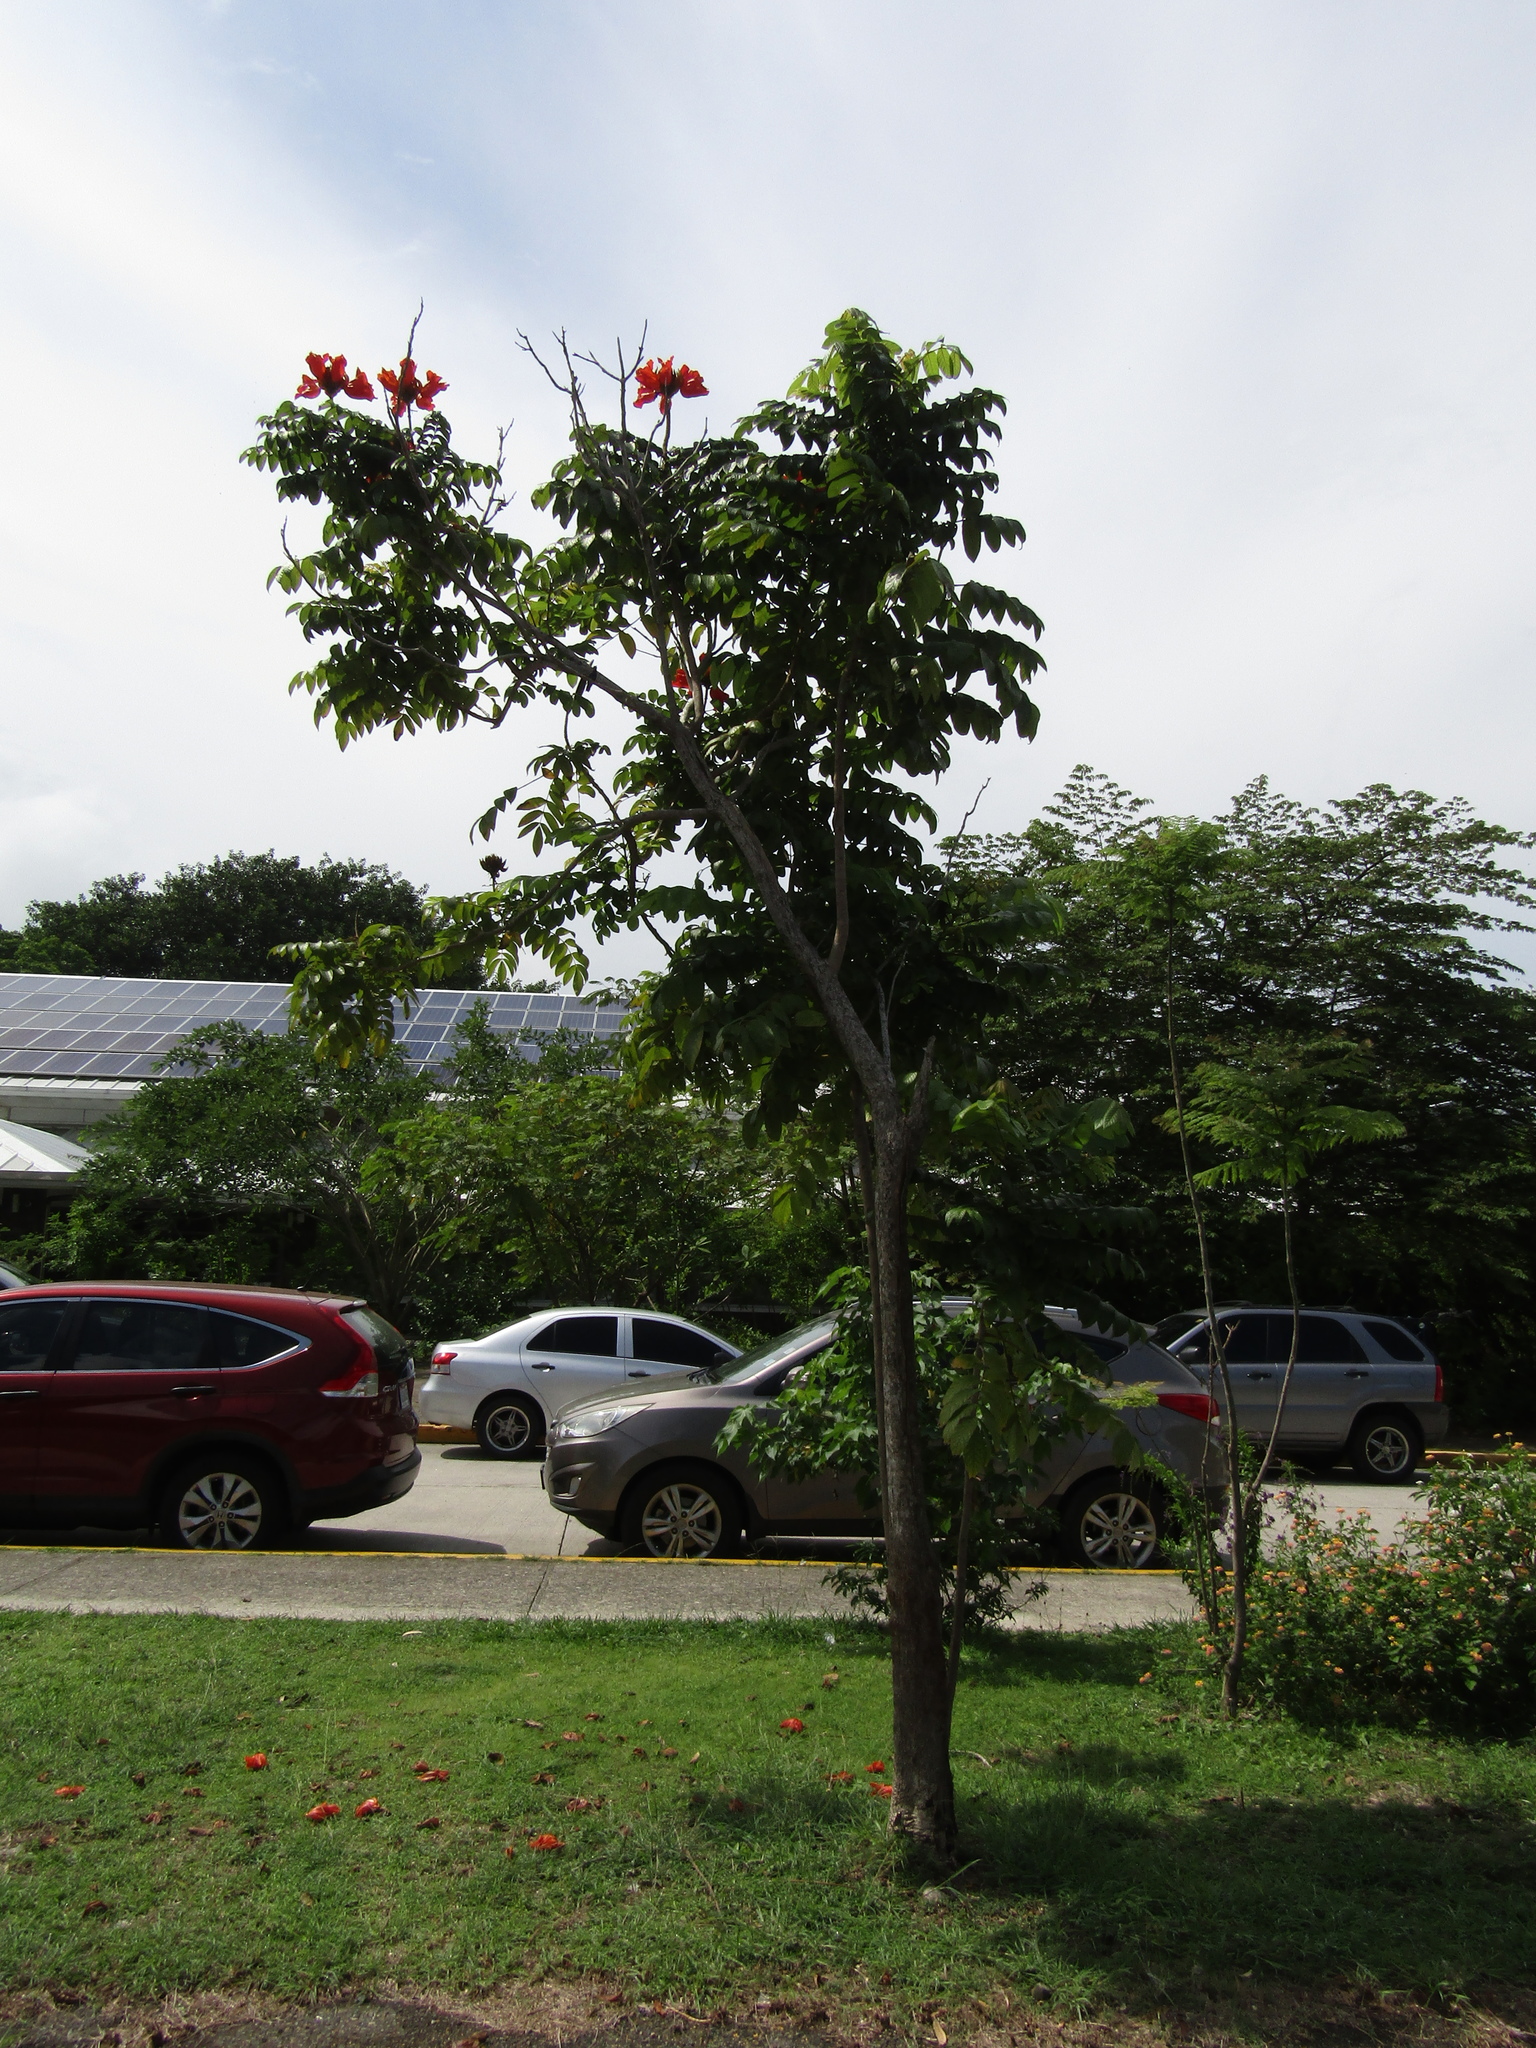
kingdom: Plantae
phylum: Tracheophyta
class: Magnoliopsida
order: Lamiales
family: Bignoniaceae
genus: Spathodea
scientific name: Spathodea campanulata
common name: African tuliptree
